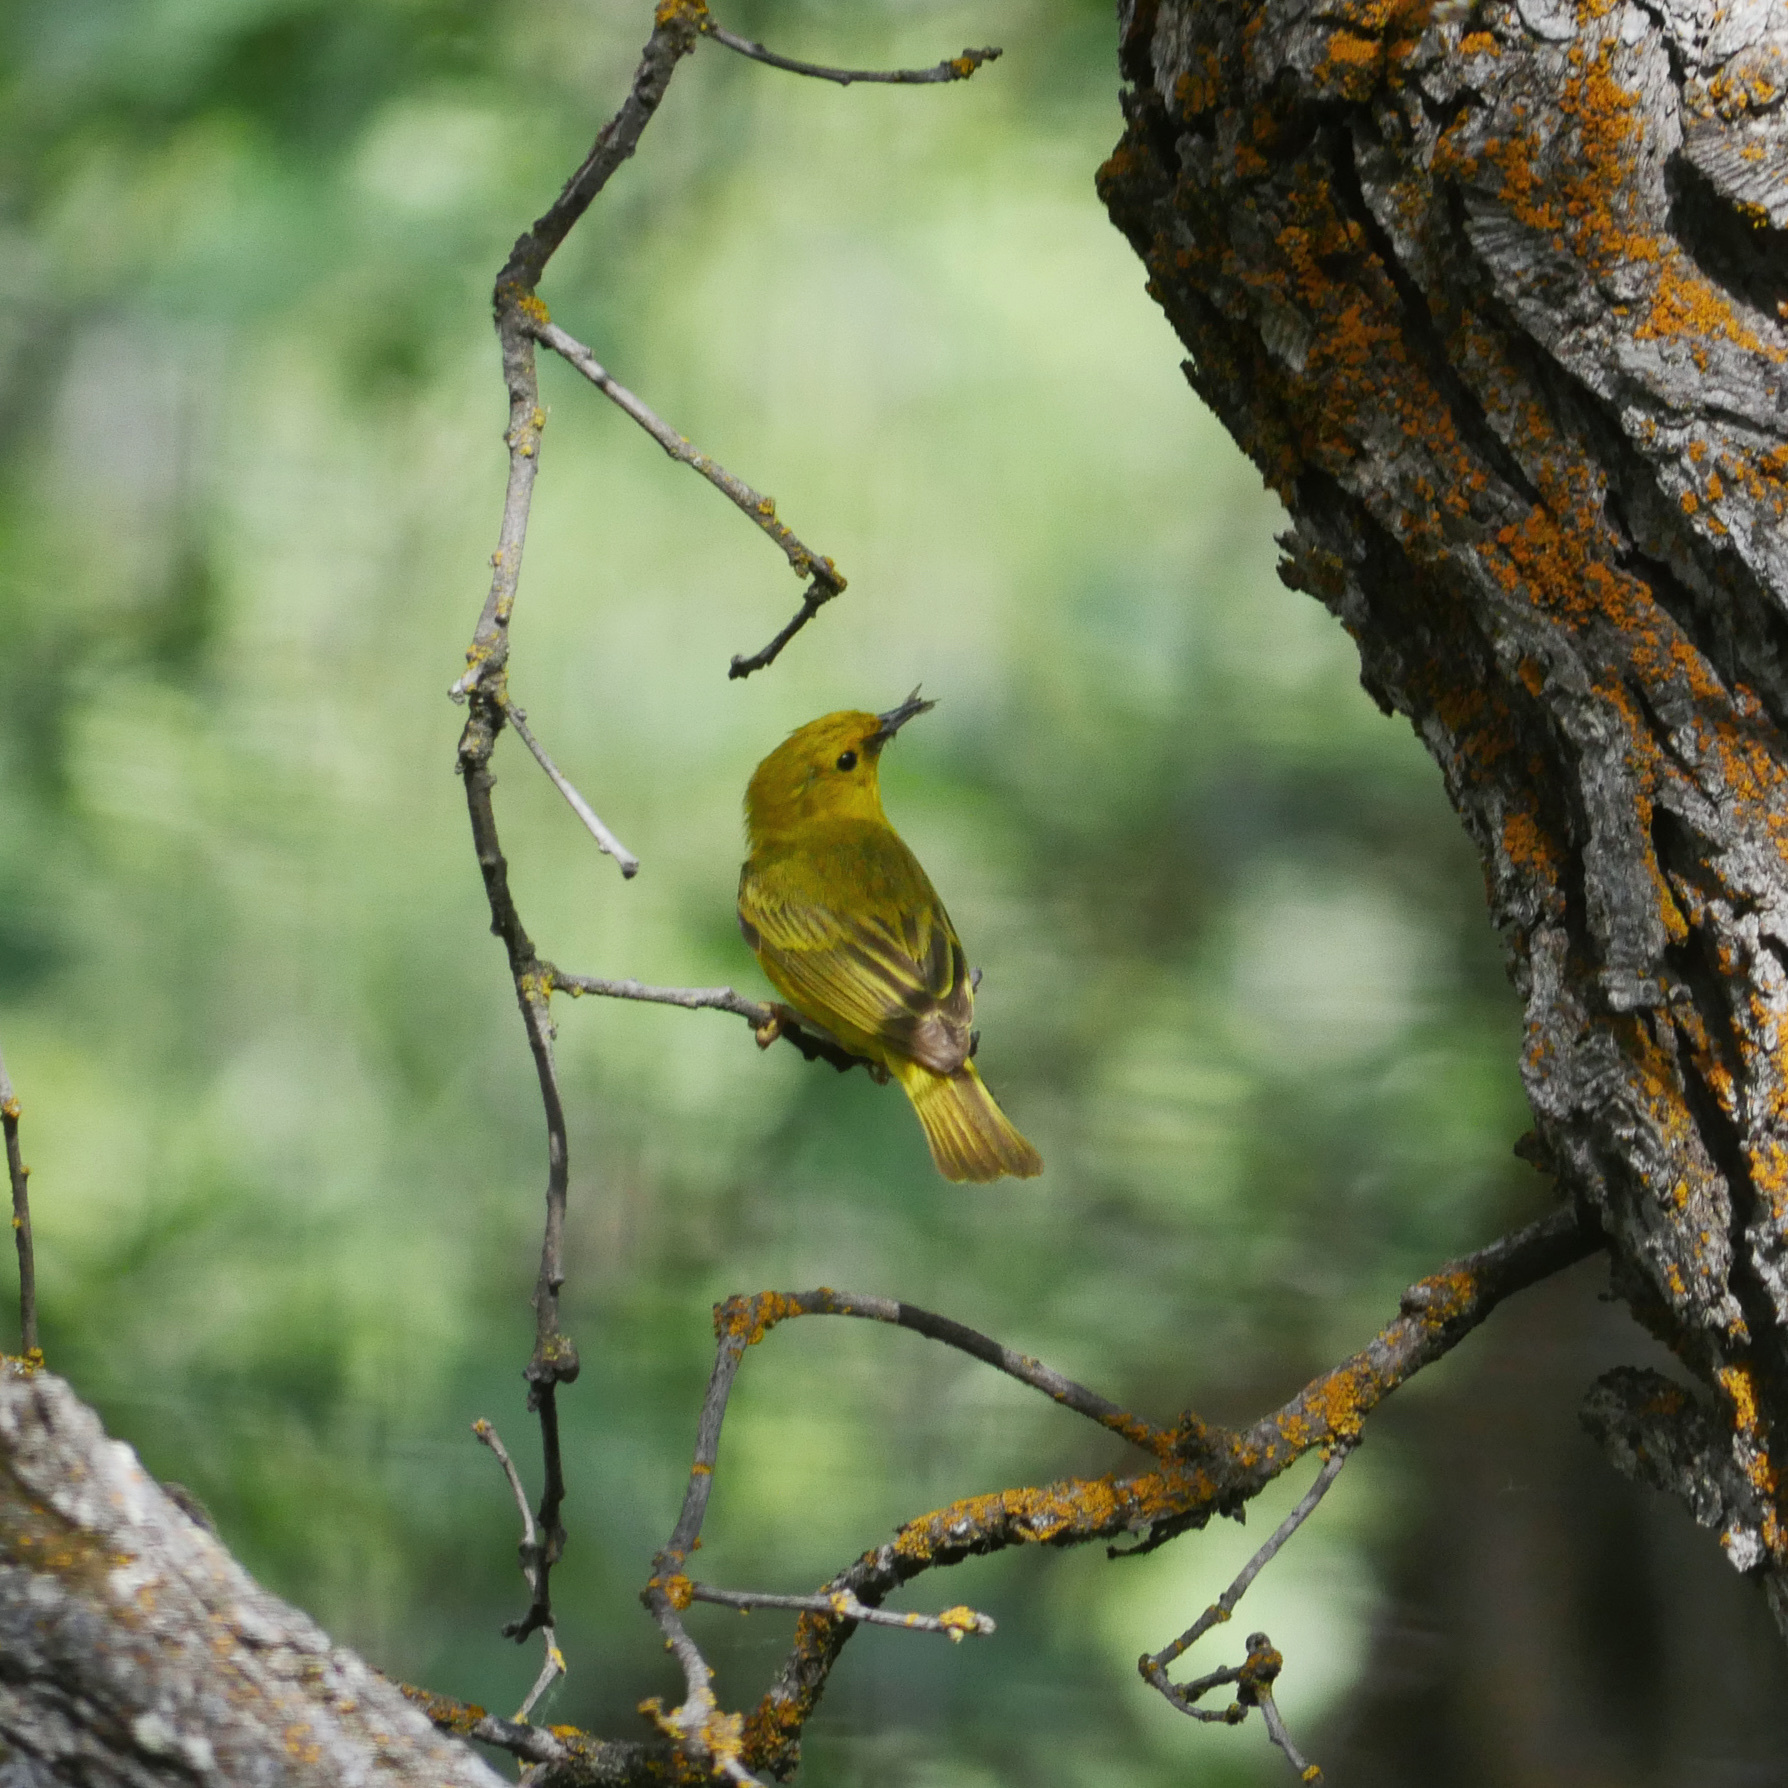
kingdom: Animalia
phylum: Chordata
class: Aves
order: Passeriformes
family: Parulidae
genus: Setophaga
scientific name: Setophaga petechia
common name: Yellow warbler
